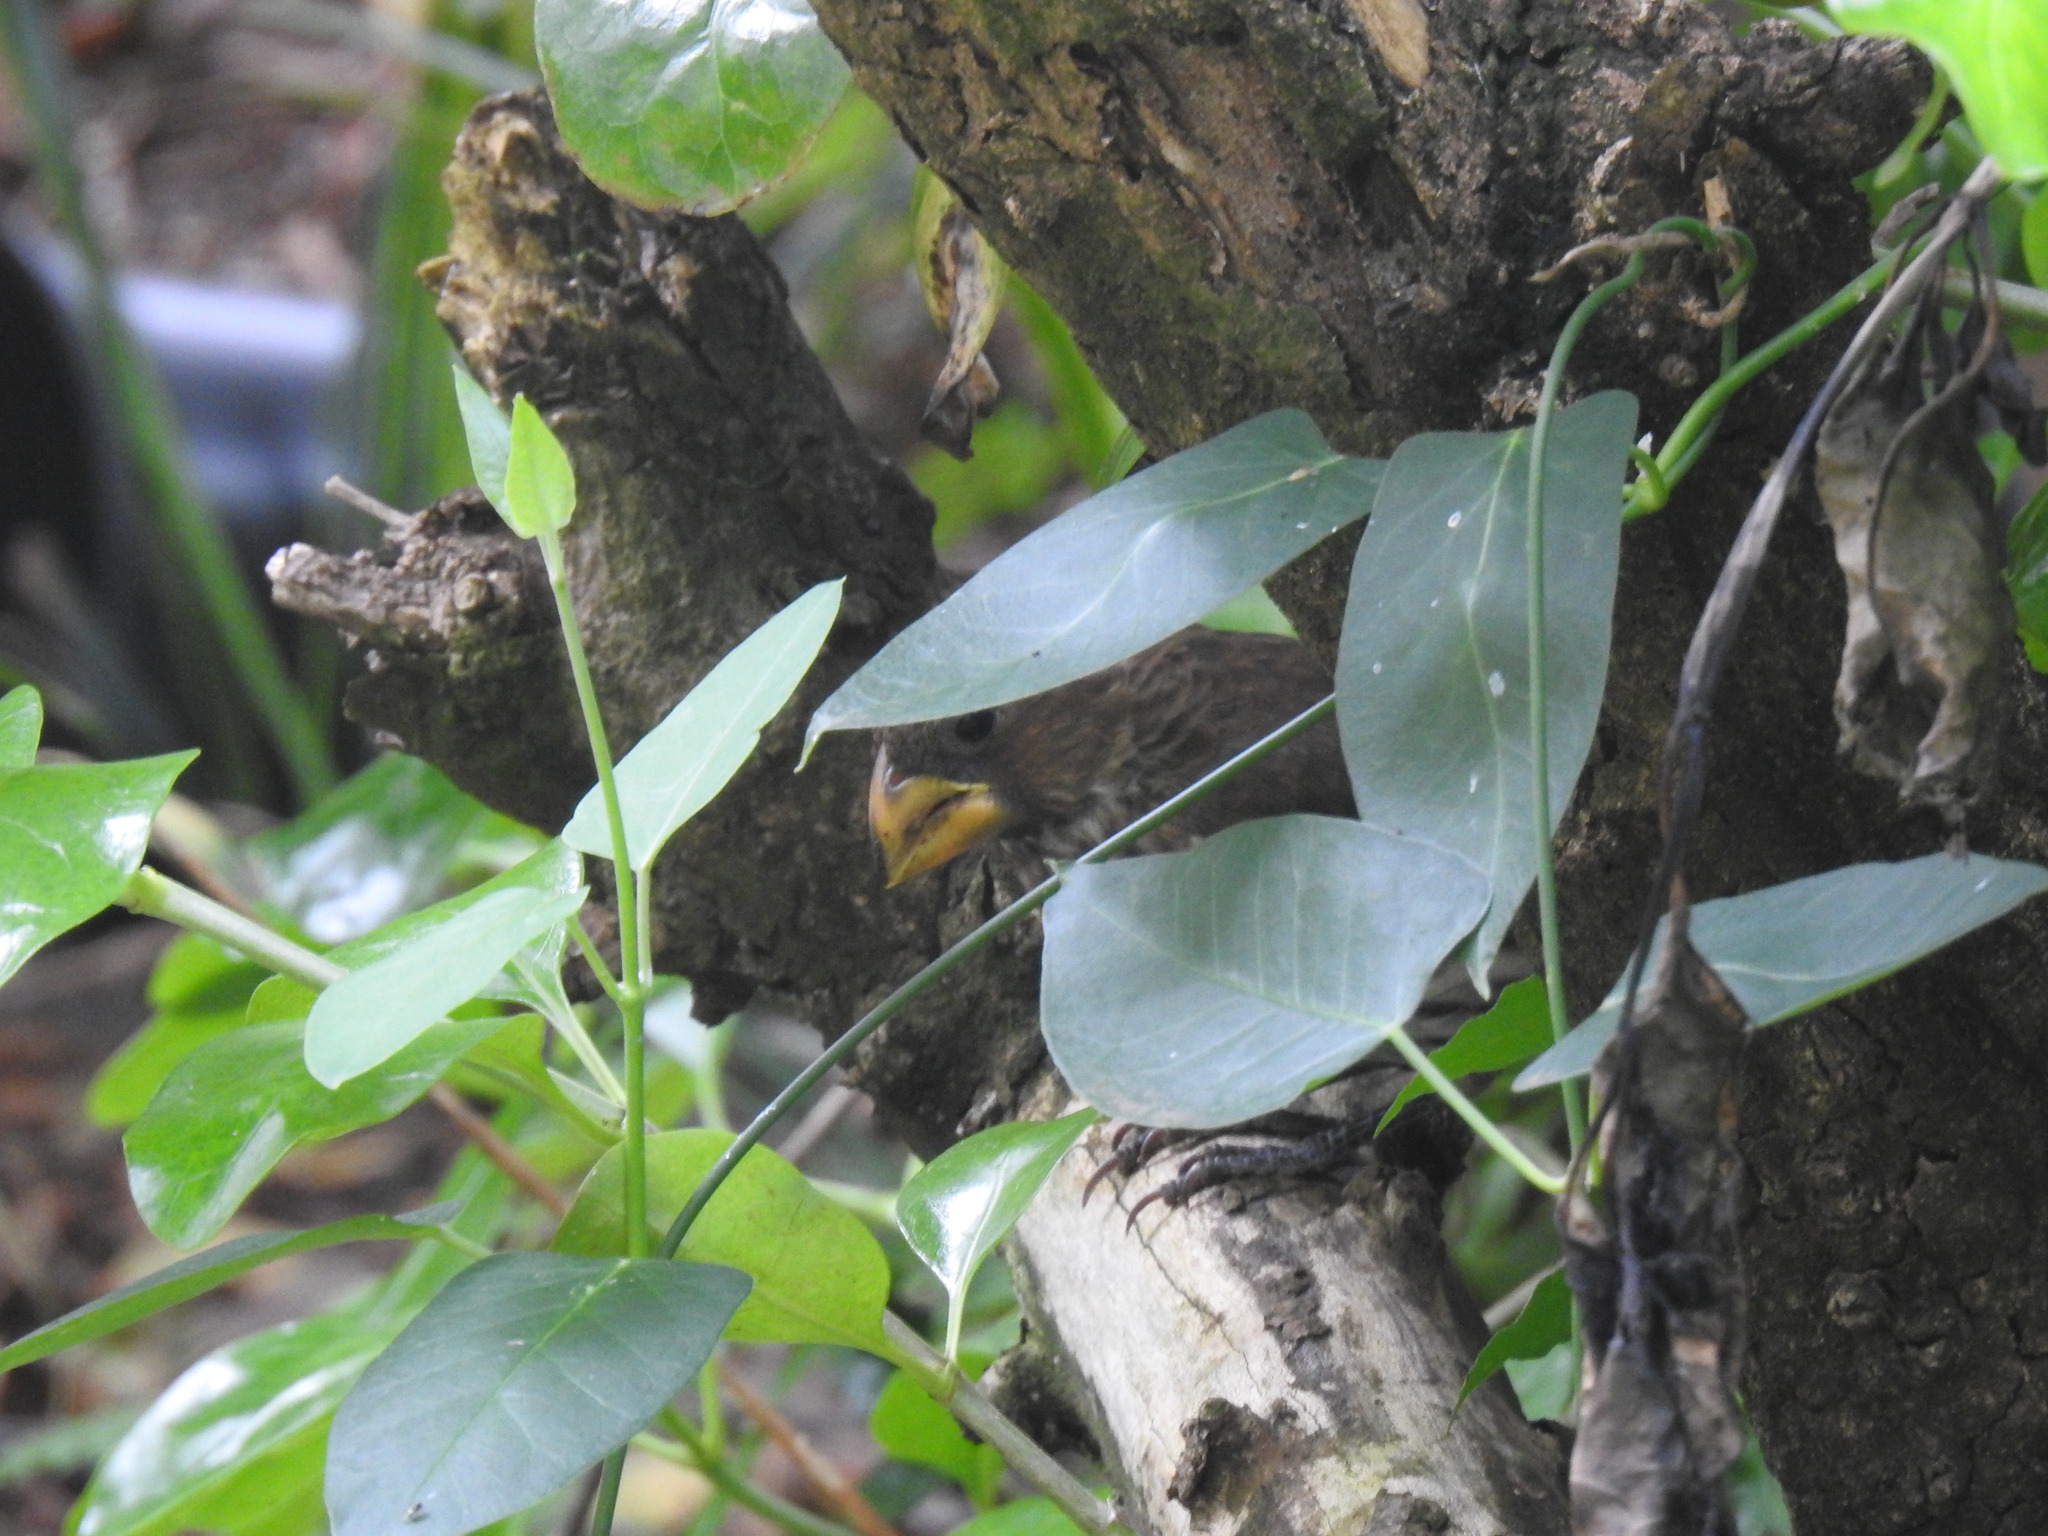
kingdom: Animalia
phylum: Chordata
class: Aves
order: Passeriformes
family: Ploceidae
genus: Amblyospiza
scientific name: Amblyospiza albifrons
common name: Thick-billed weaver
